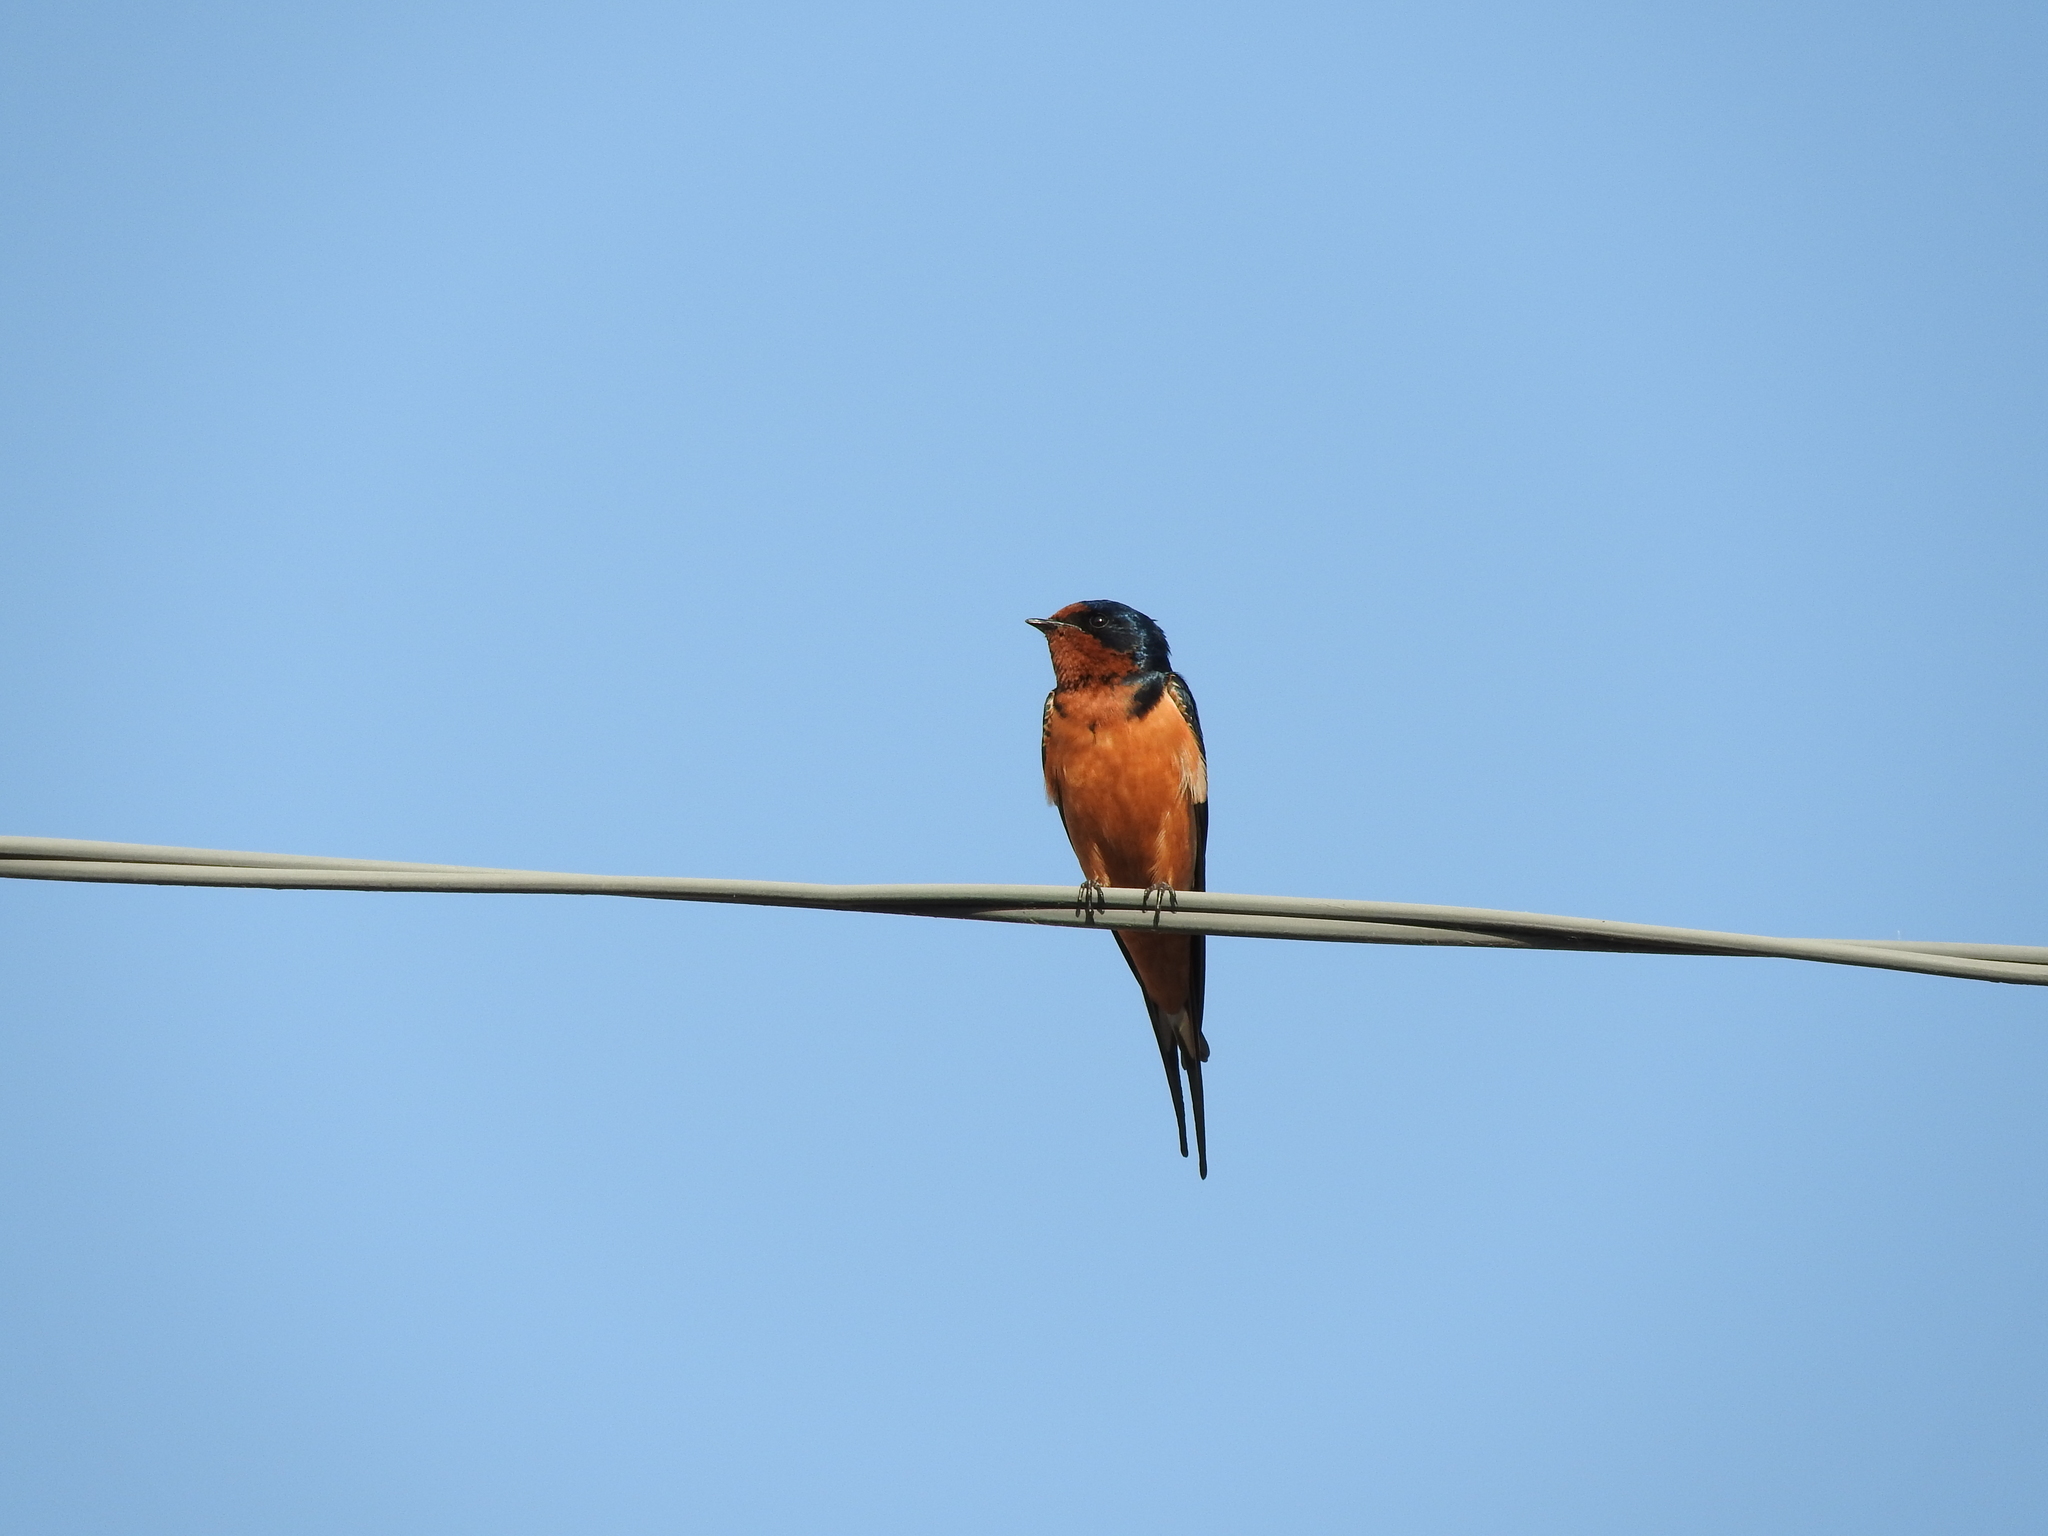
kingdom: Animalia
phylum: Chordata
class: Aves
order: Passeriformes
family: Hirundinidae
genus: Hirundo
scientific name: Hirundo rustica
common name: Barn swallow
